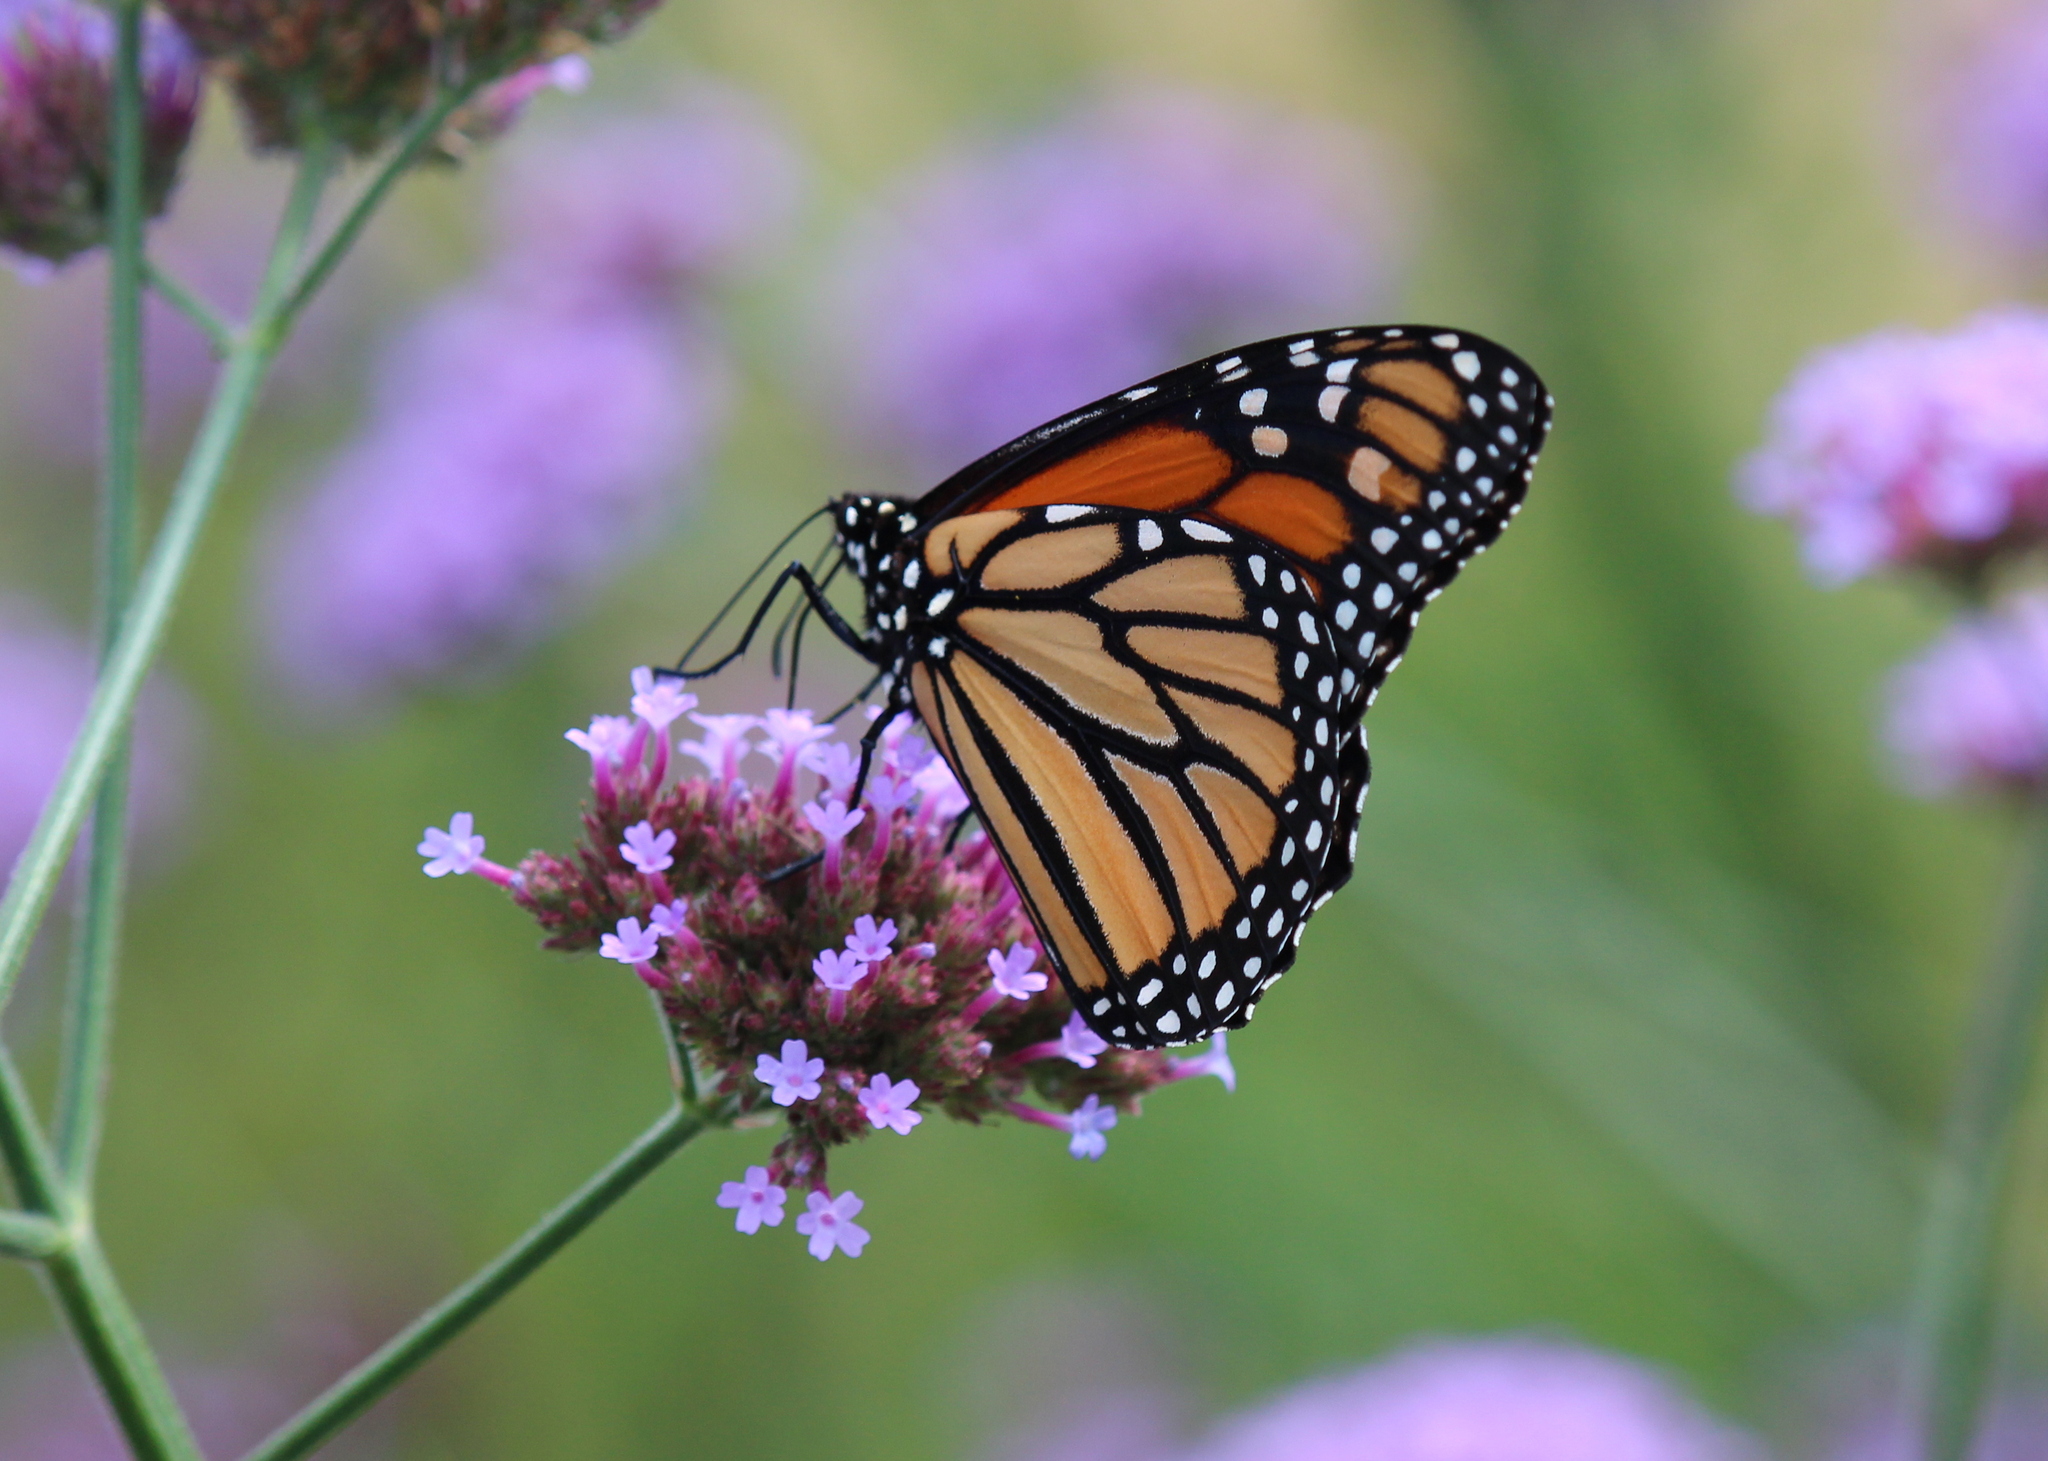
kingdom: Animalia
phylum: Arthropoda
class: Insecta
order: Lepidoptera
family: Nymphalidae
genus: Danaus
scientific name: Danaus plexippus
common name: Monarch
